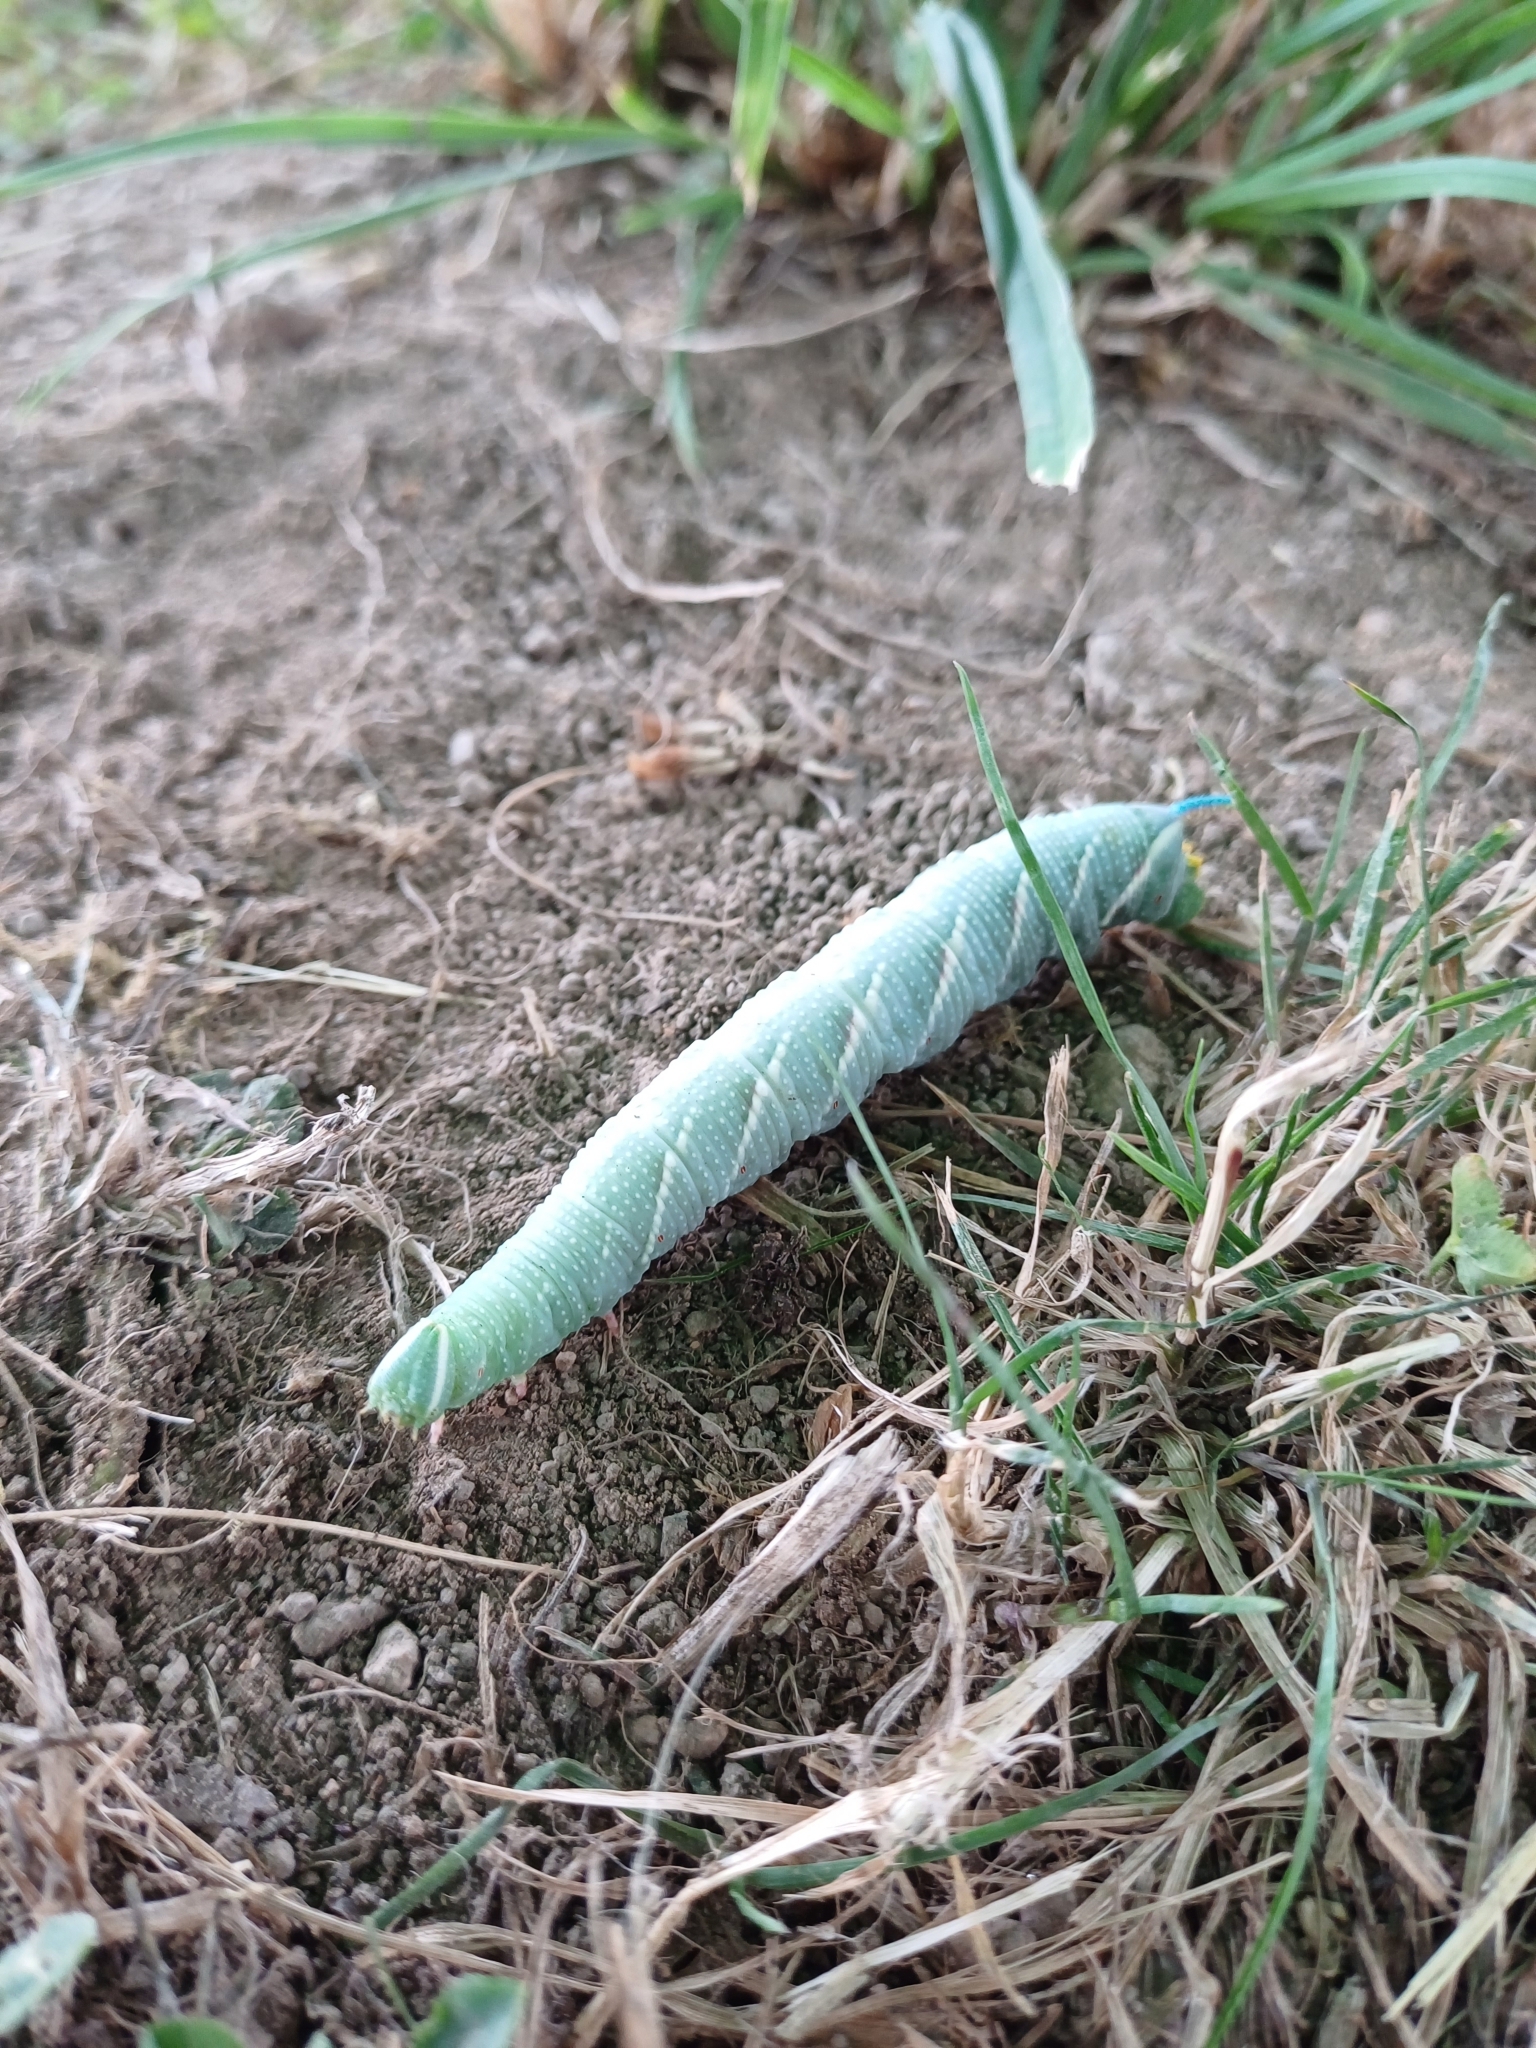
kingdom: Animalia
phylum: Arthropoda
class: Insecta
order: Lepidoptera
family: Sphingidae
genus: Mimas
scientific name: Mimas tiliae
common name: Lime hawk-moth
